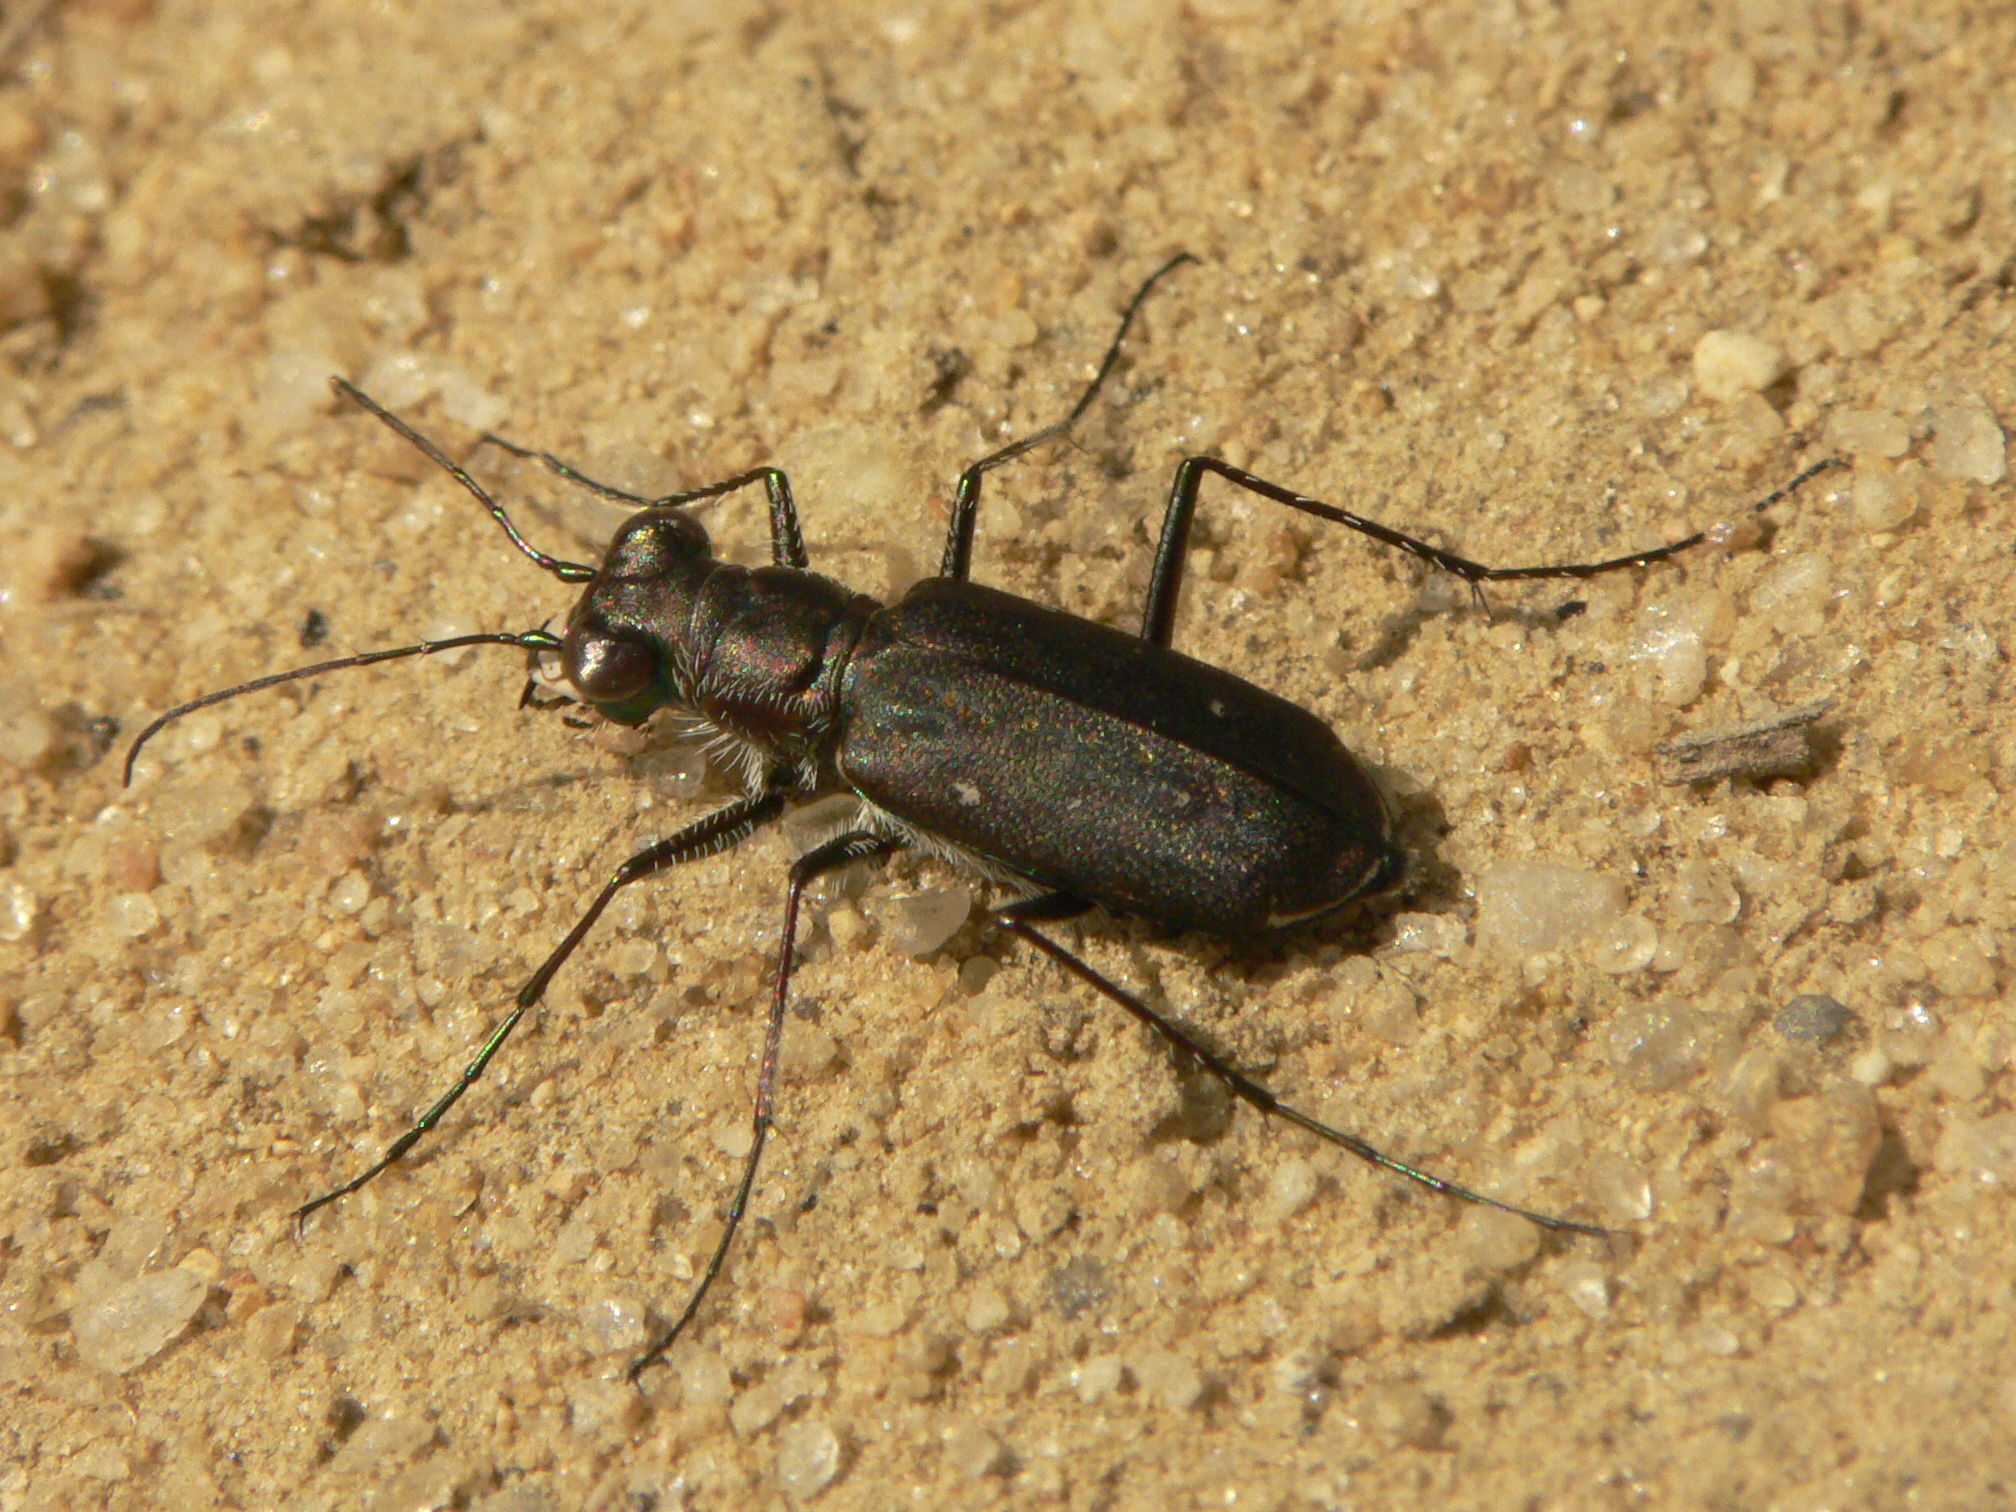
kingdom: Animalia
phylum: Arthropoda
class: Insecta
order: Coleoptera
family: Carabidae
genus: Cicindela
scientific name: Cicindela punctulata
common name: Punctured tiger beetle
